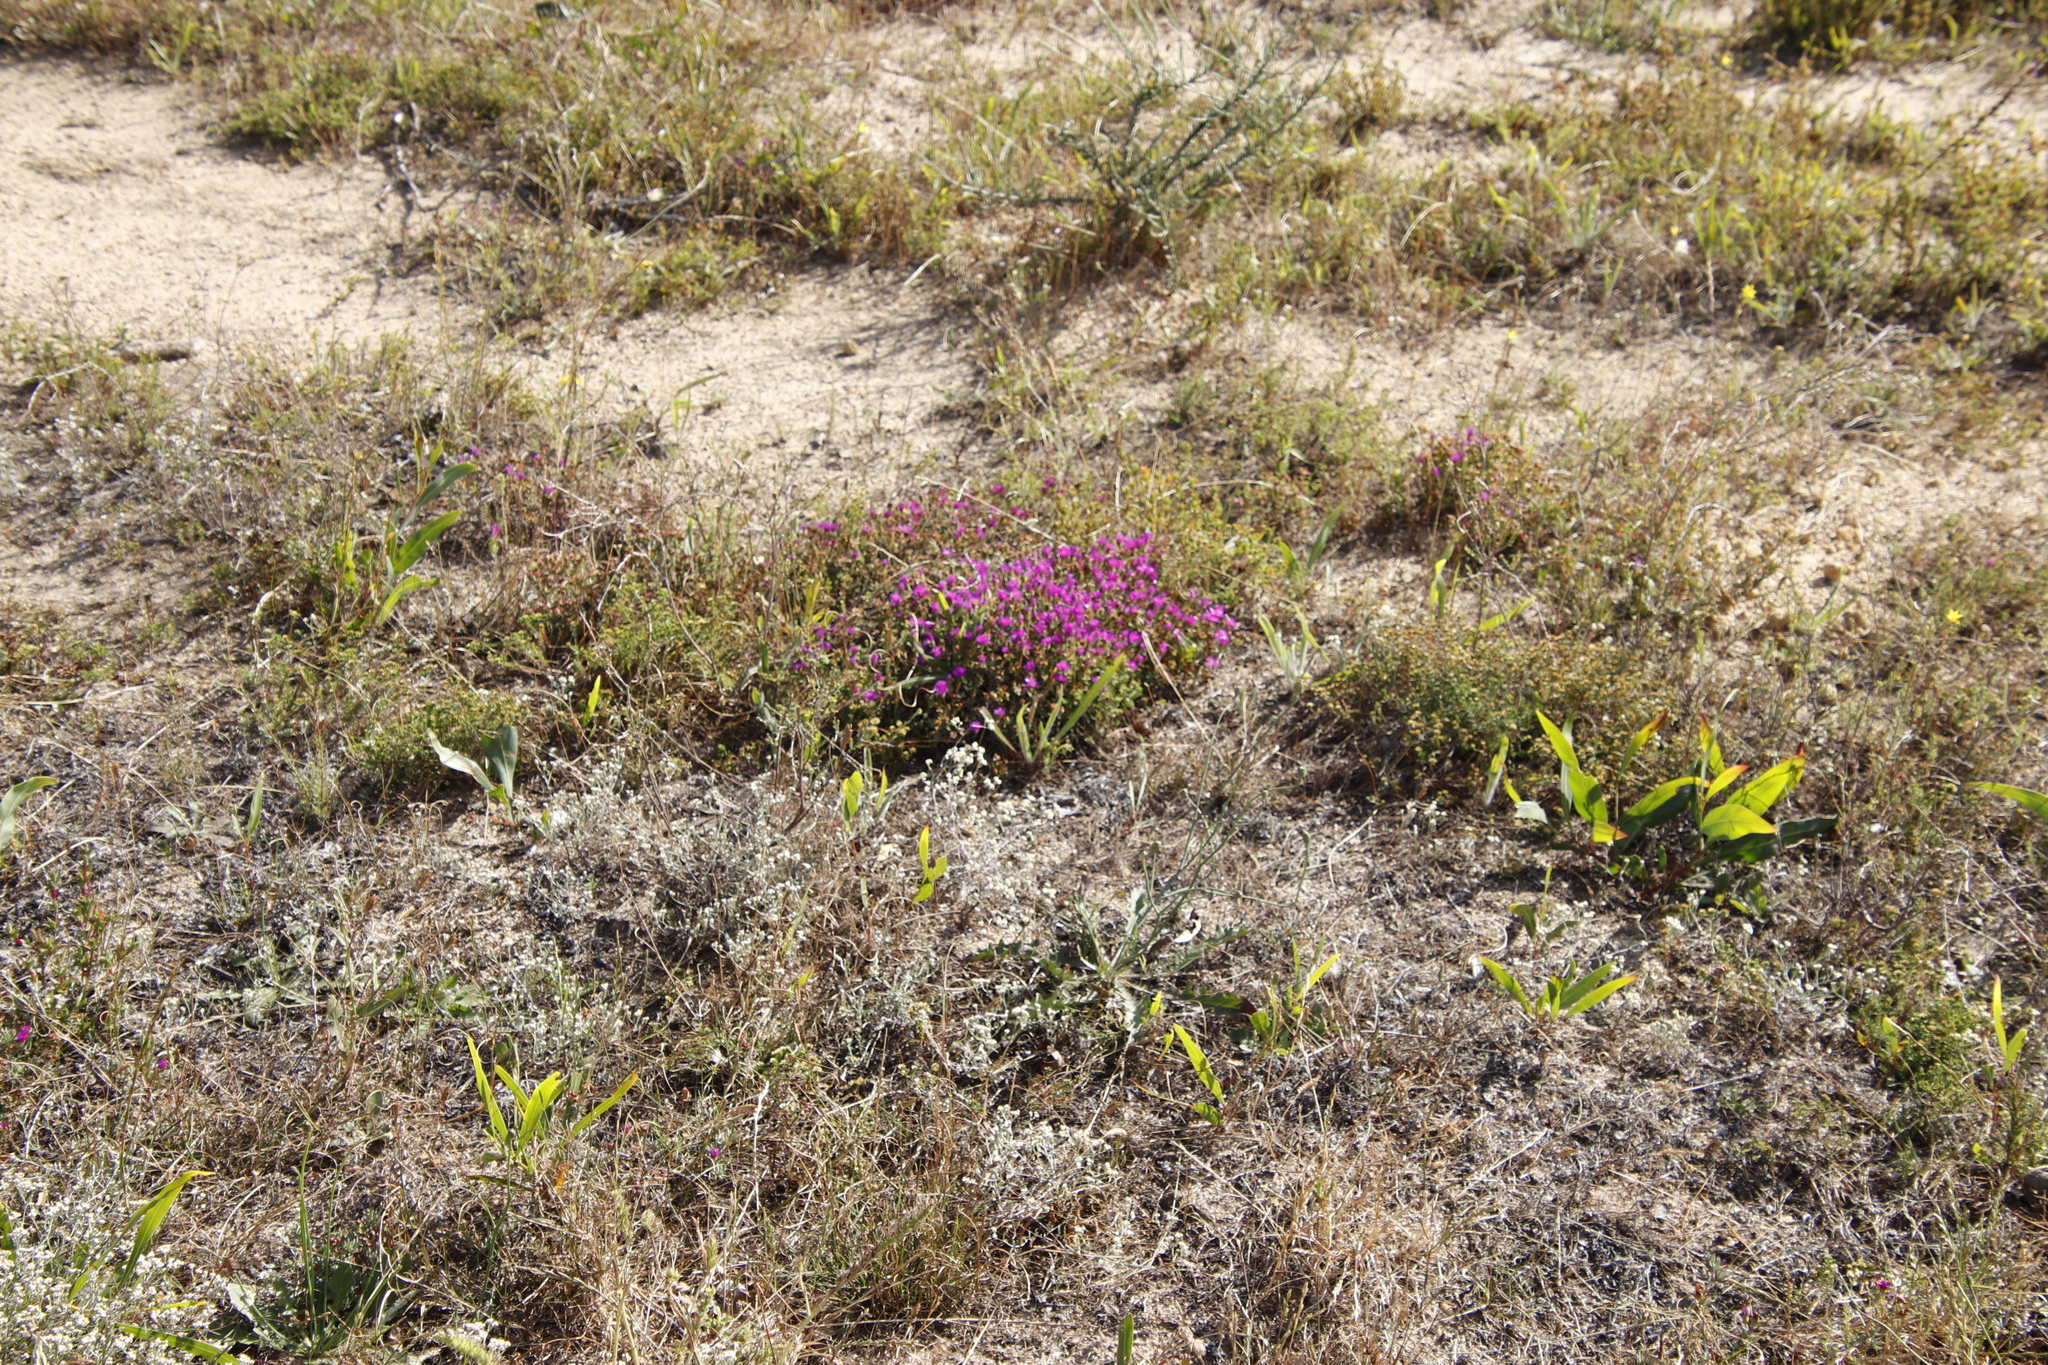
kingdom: Plantae
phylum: Tracheophyta
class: Magnoliopsida
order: Caryophyllales
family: Aizoaceae
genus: Lampranthus
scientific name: Lampranthus emarginatus
